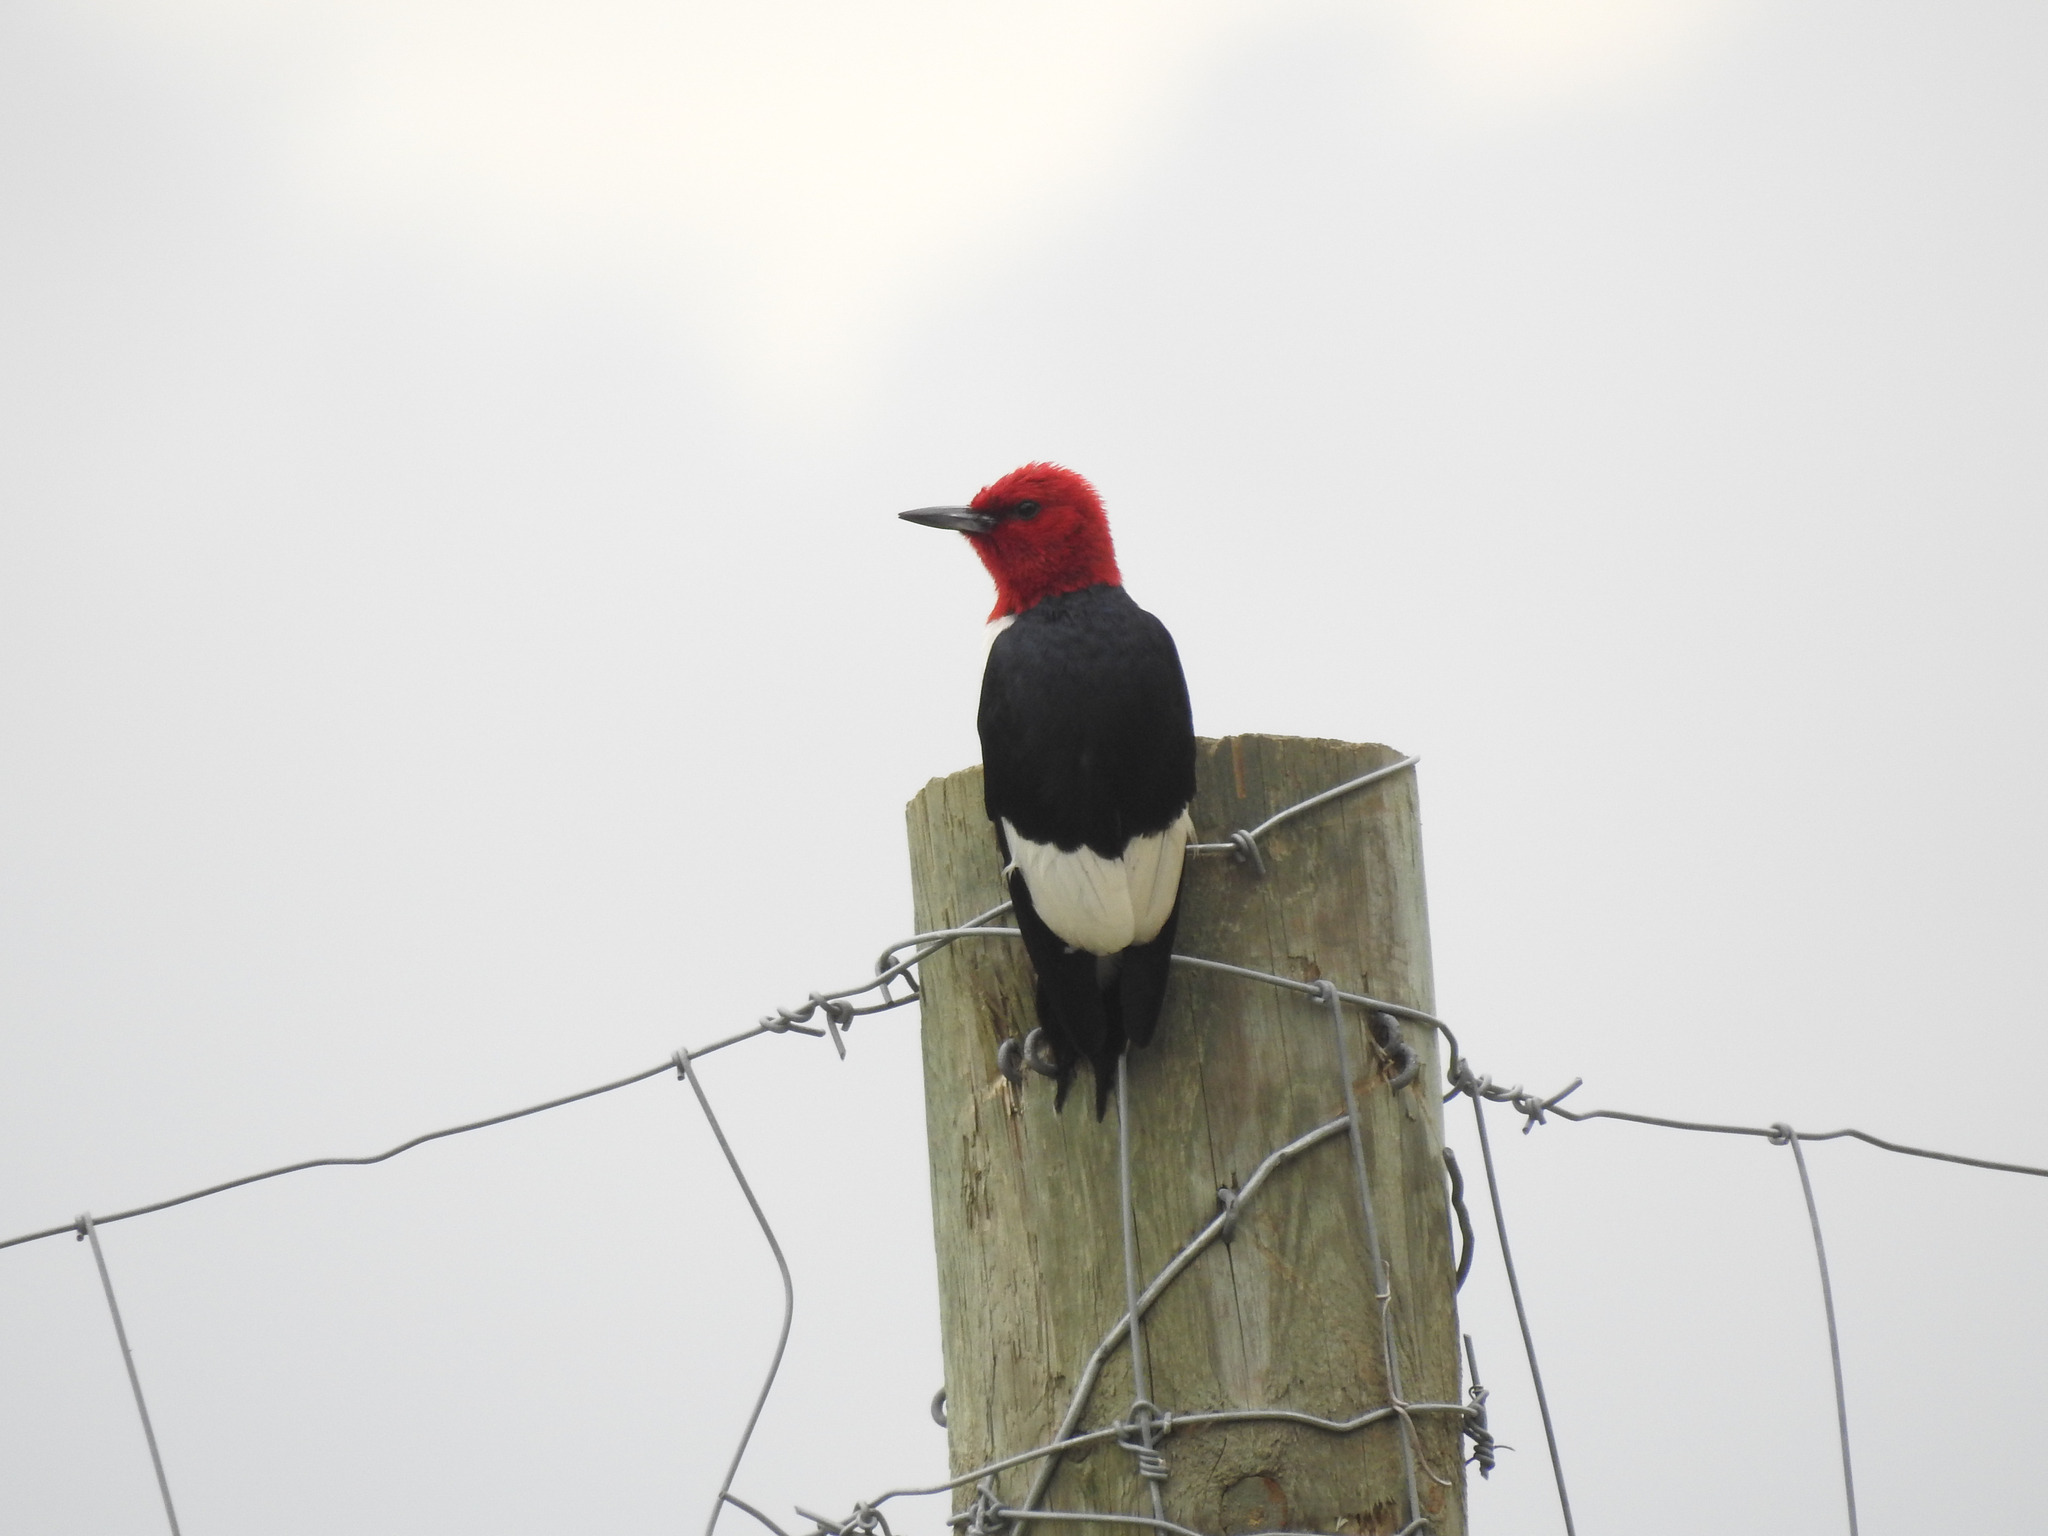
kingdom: Animalia
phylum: Chordata
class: Aves
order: Piciformes
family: Picidae
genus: Melanerpes
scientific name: Melanerpes erythrocephalus
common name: Red-headed woodpecker
